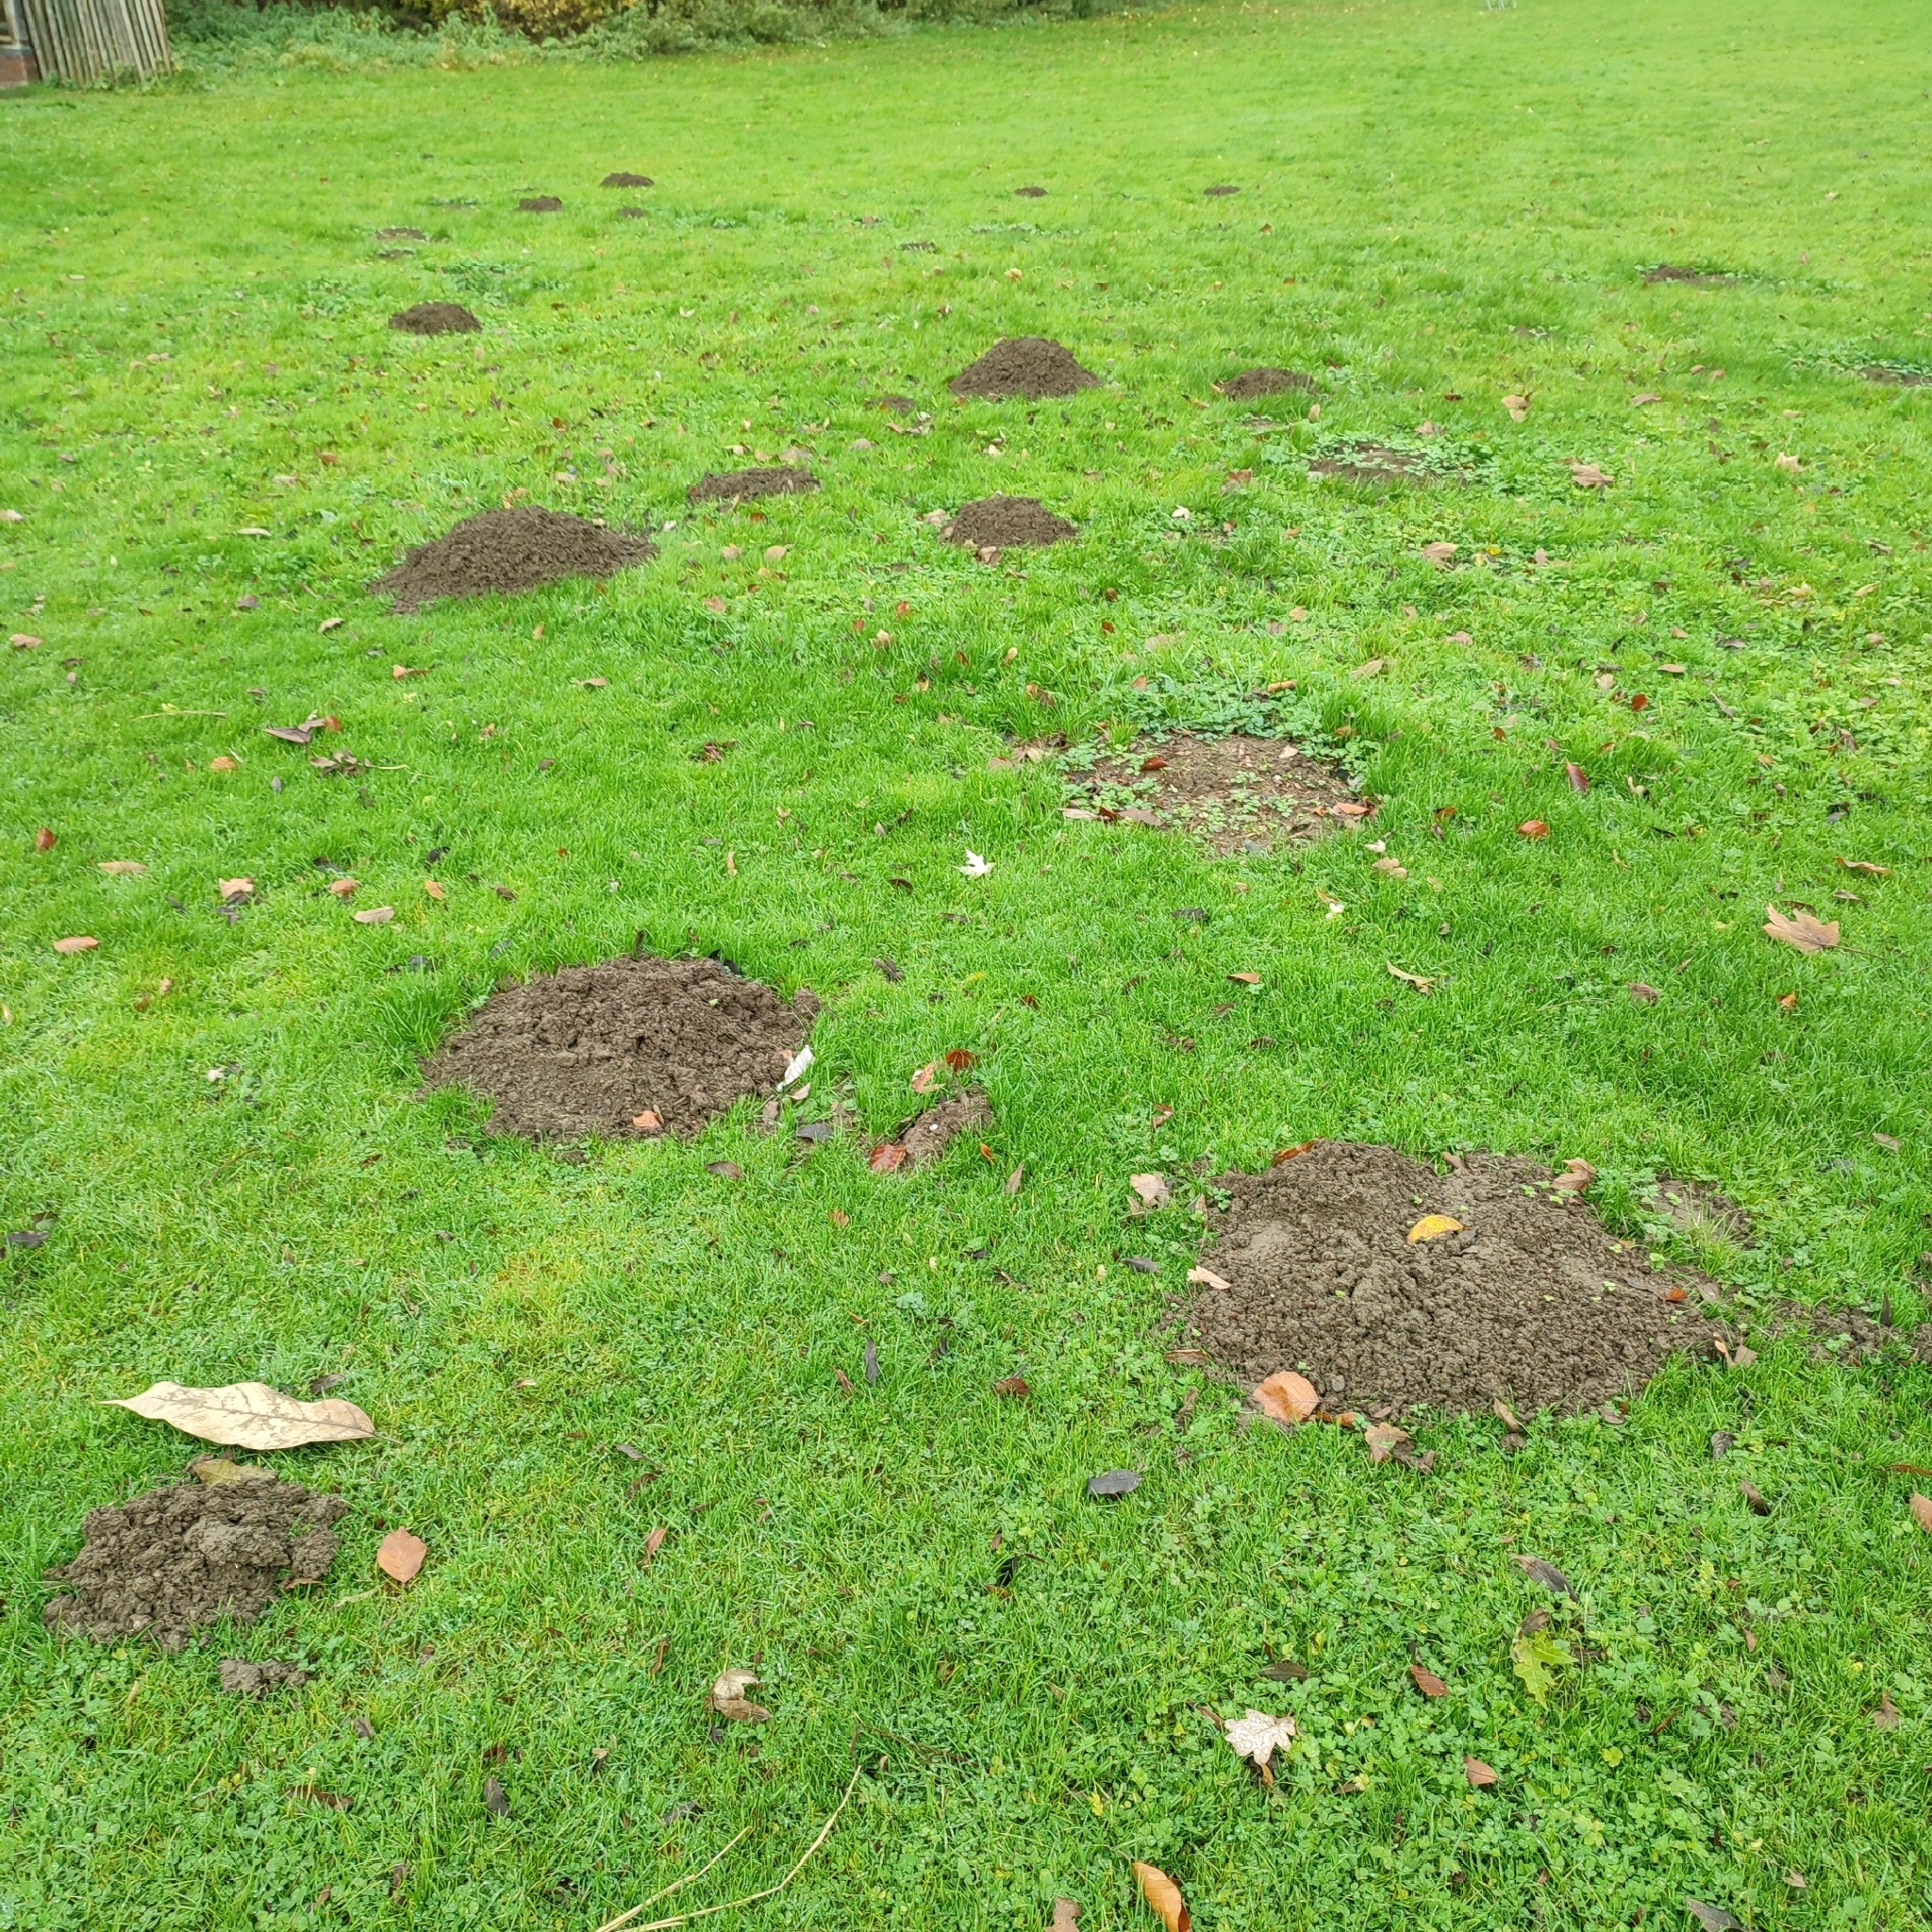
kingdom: Animalia
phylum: Chordata
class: Mammalia
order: Soricomorpha
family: Talpidae
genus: Talpa
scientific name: Talpa europaea
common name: European mole
